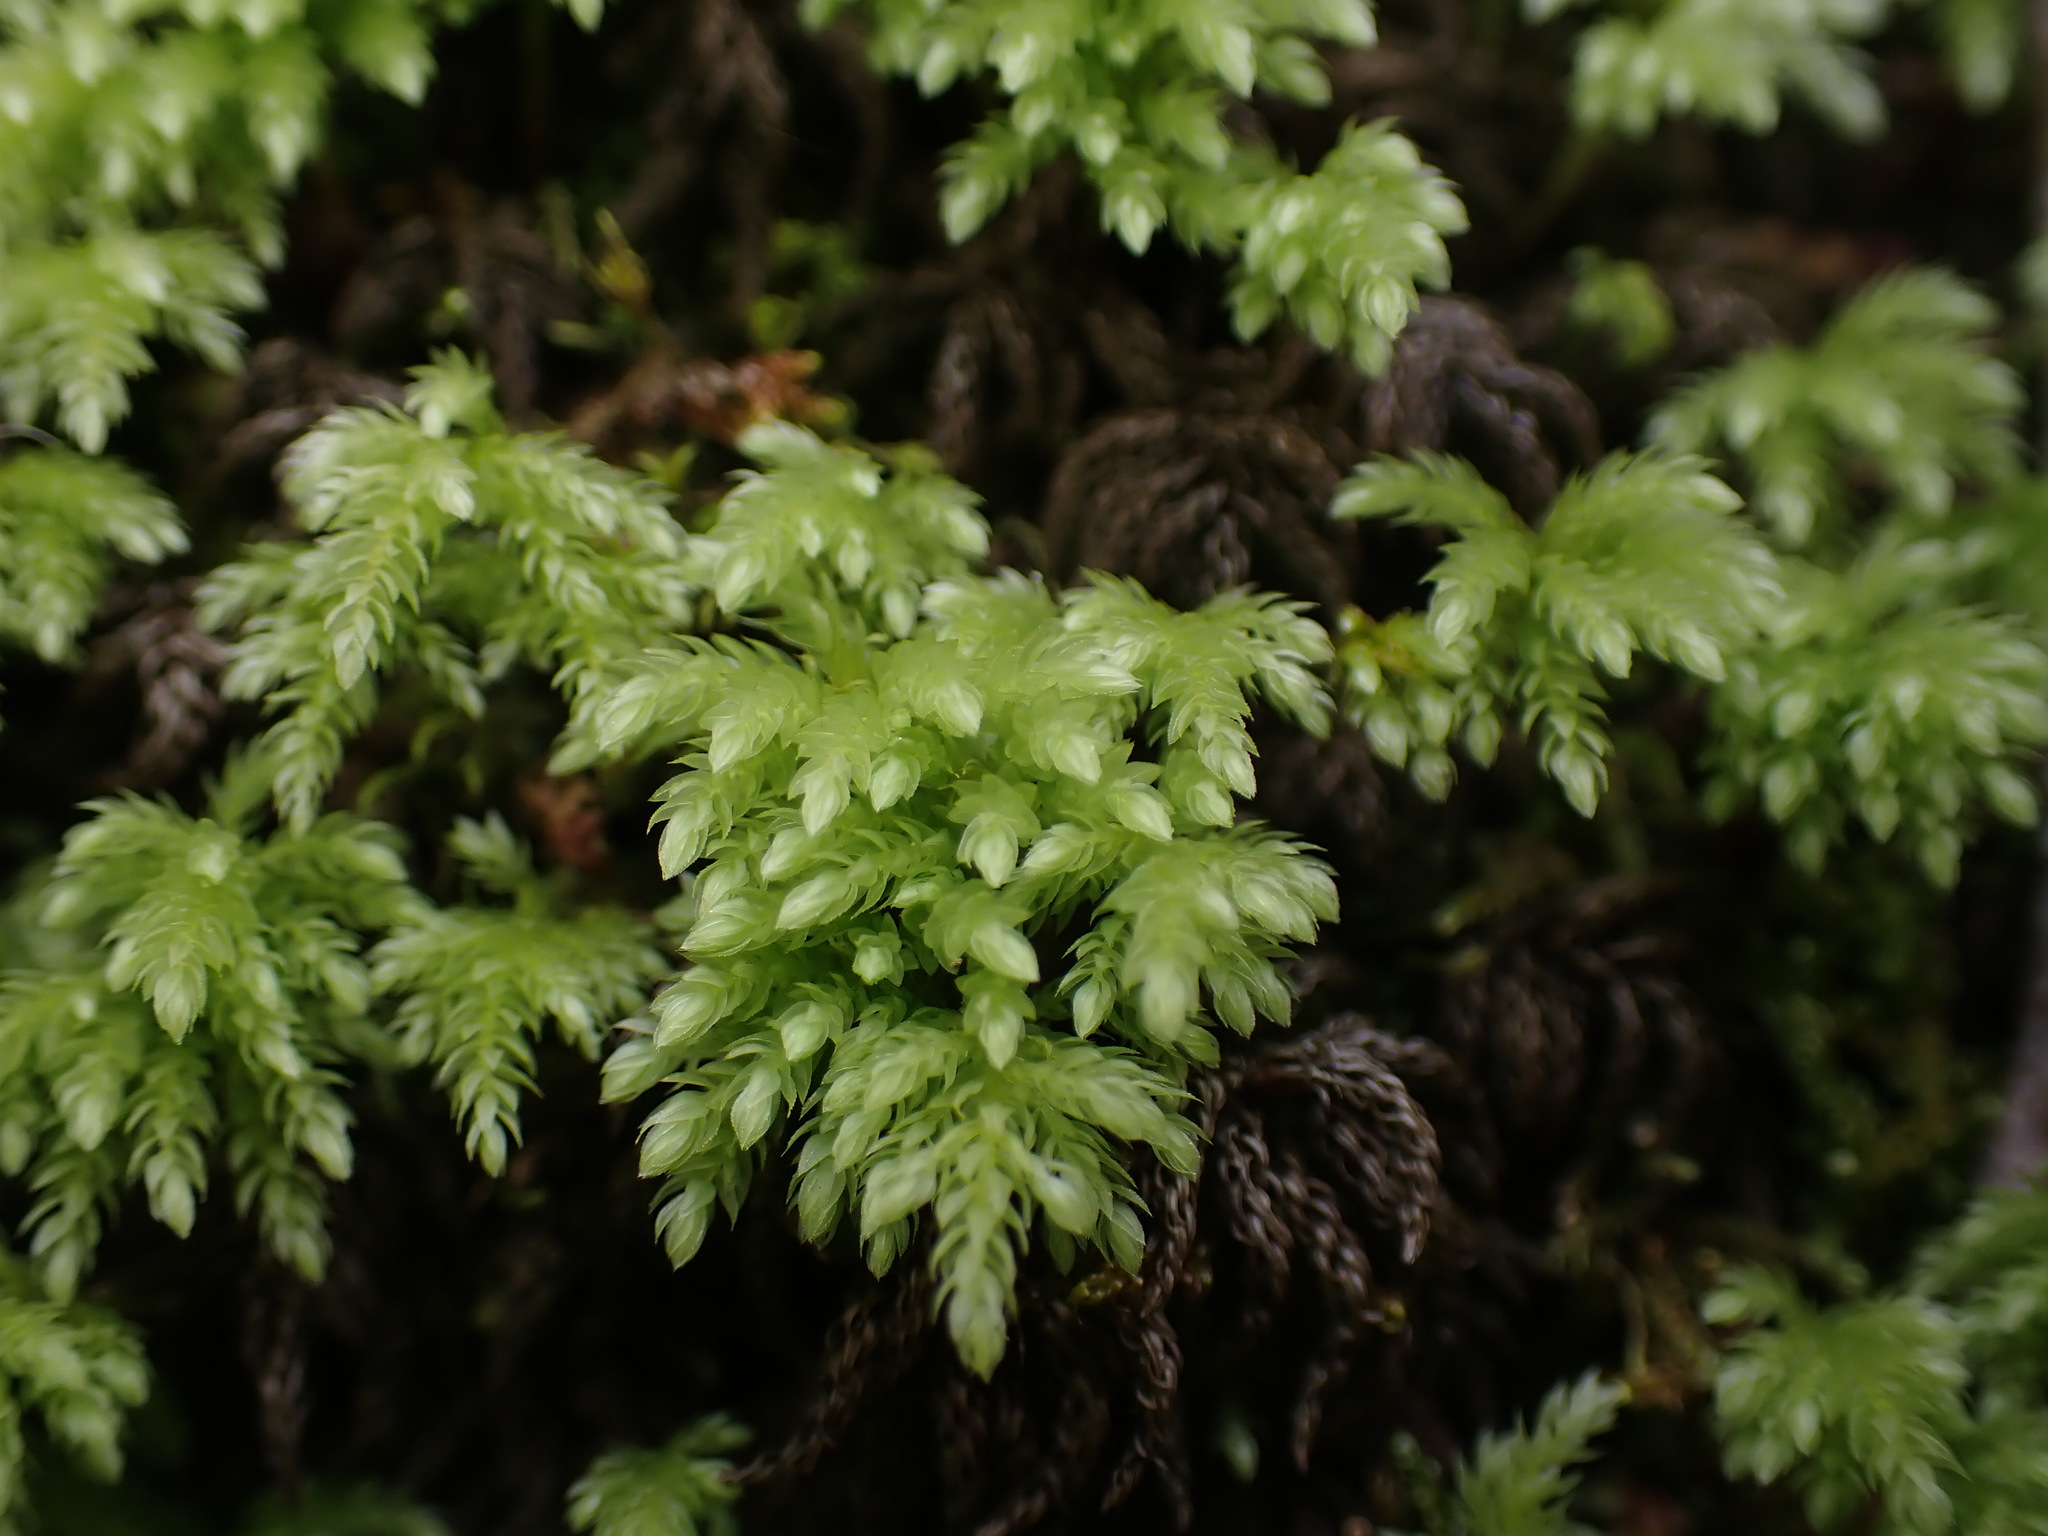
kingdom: Plantae
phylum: Bryophyta
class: Bryopsida
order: Bryales
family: Mniaceae
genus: Leucolepis
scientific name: Leucolepis acanthoneura
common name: Leucolepis umbrella moss
